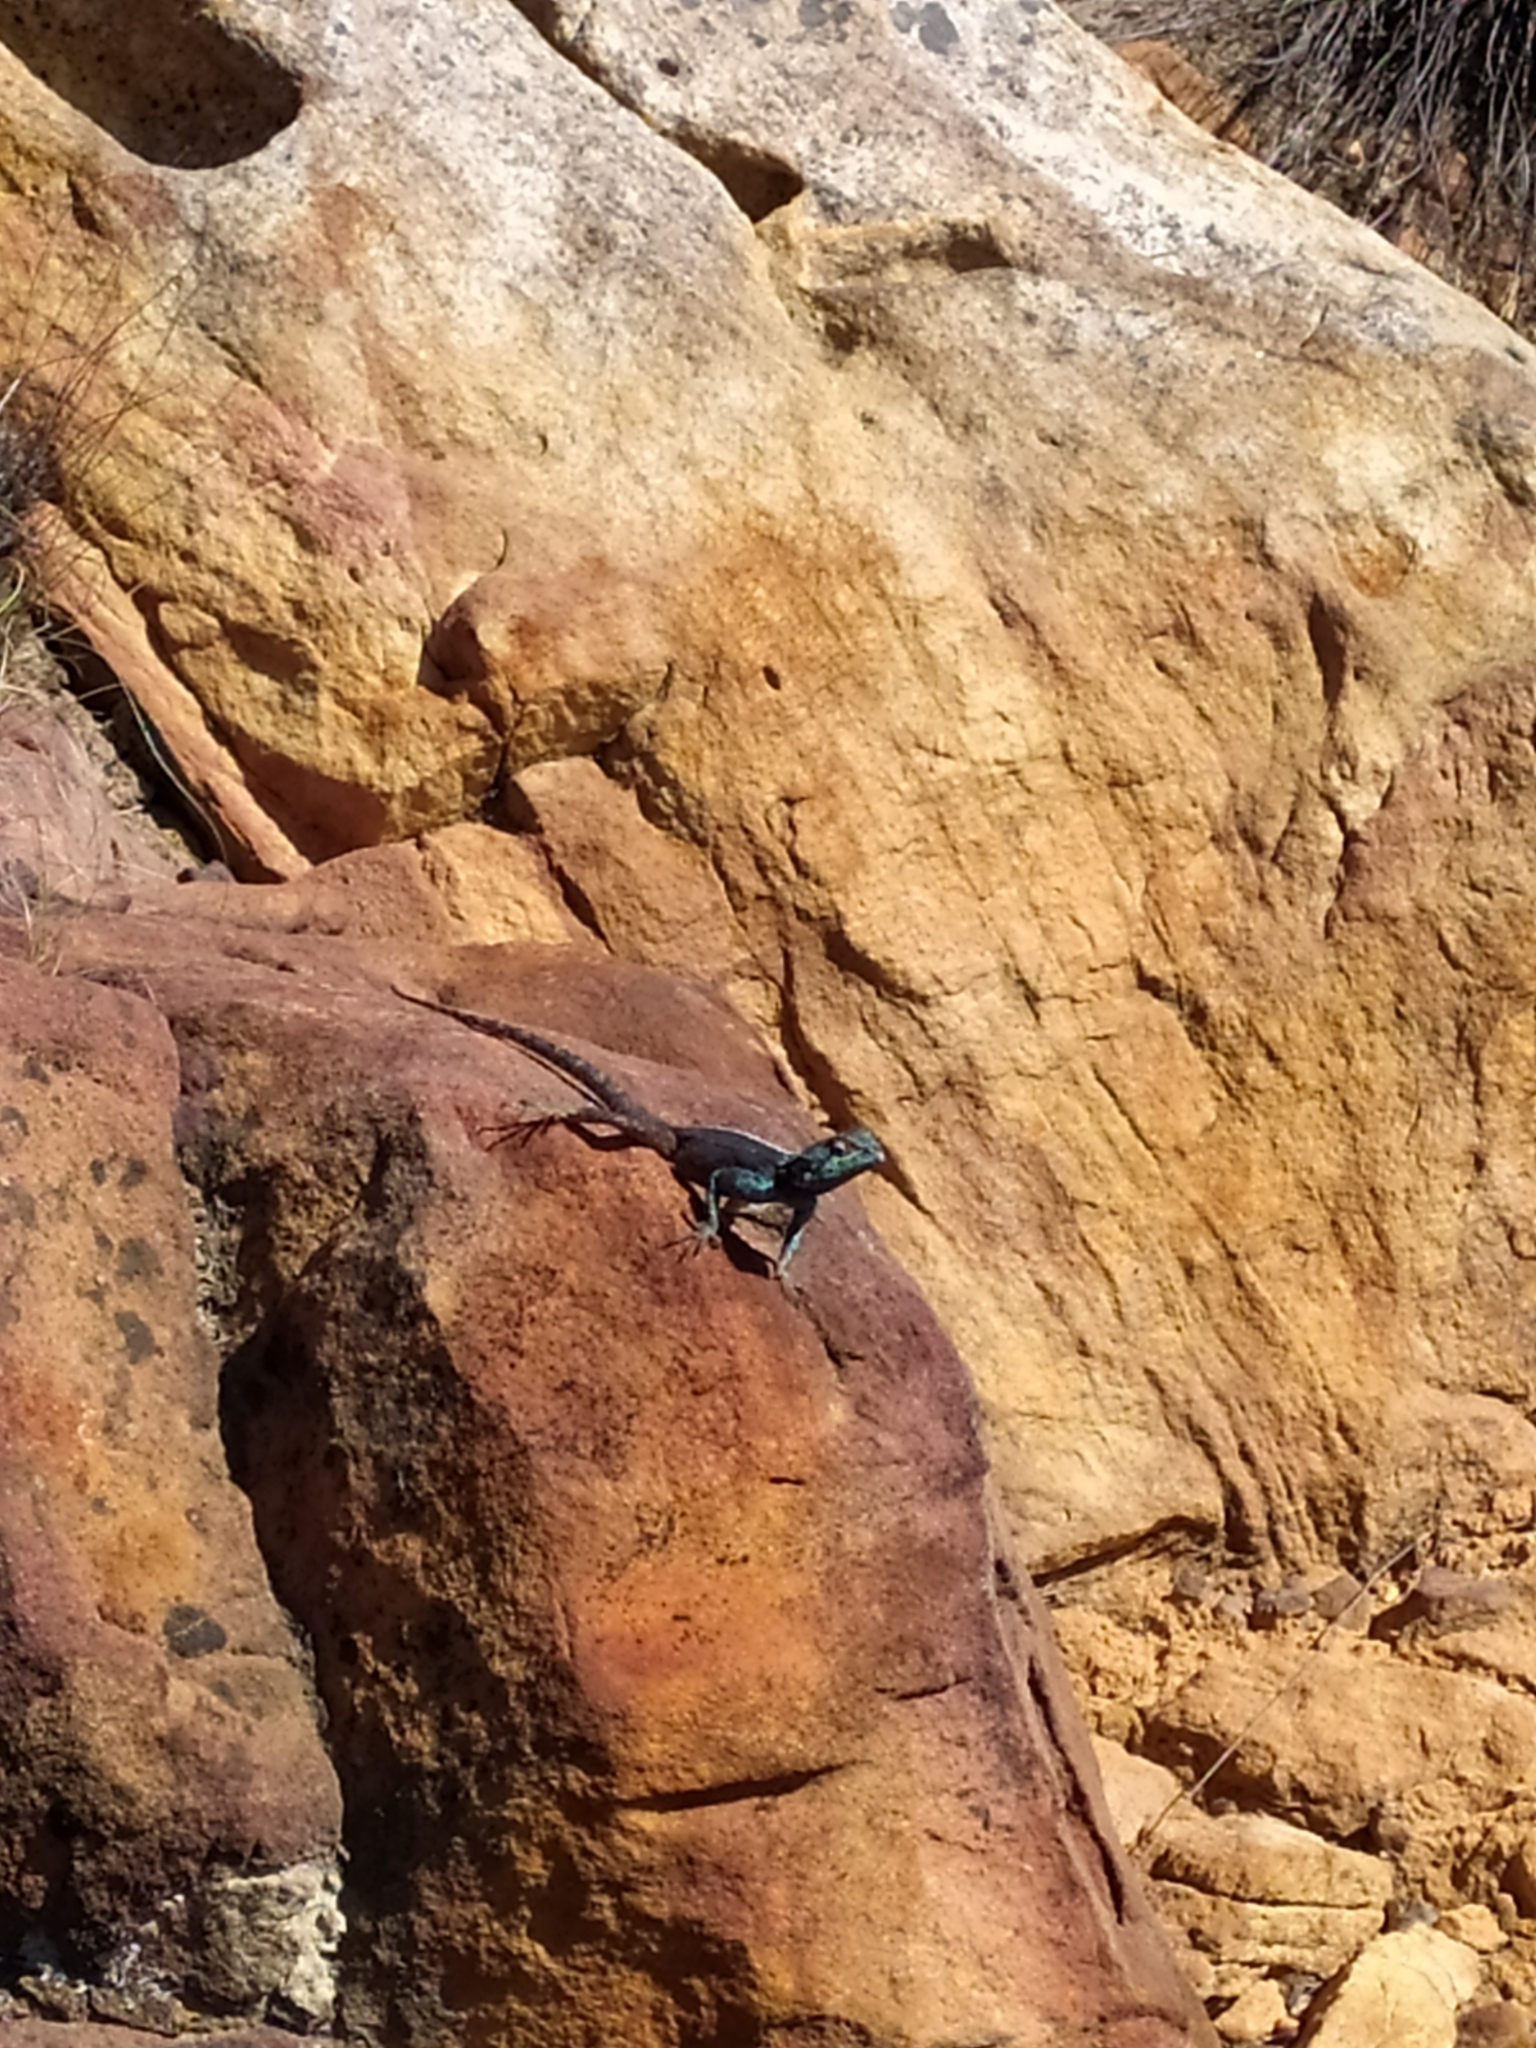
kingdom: Animalia
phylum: Chordata
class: Squamata
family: Agamidae
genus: Agama
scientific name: Agama atra
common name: Southern african rock agama
